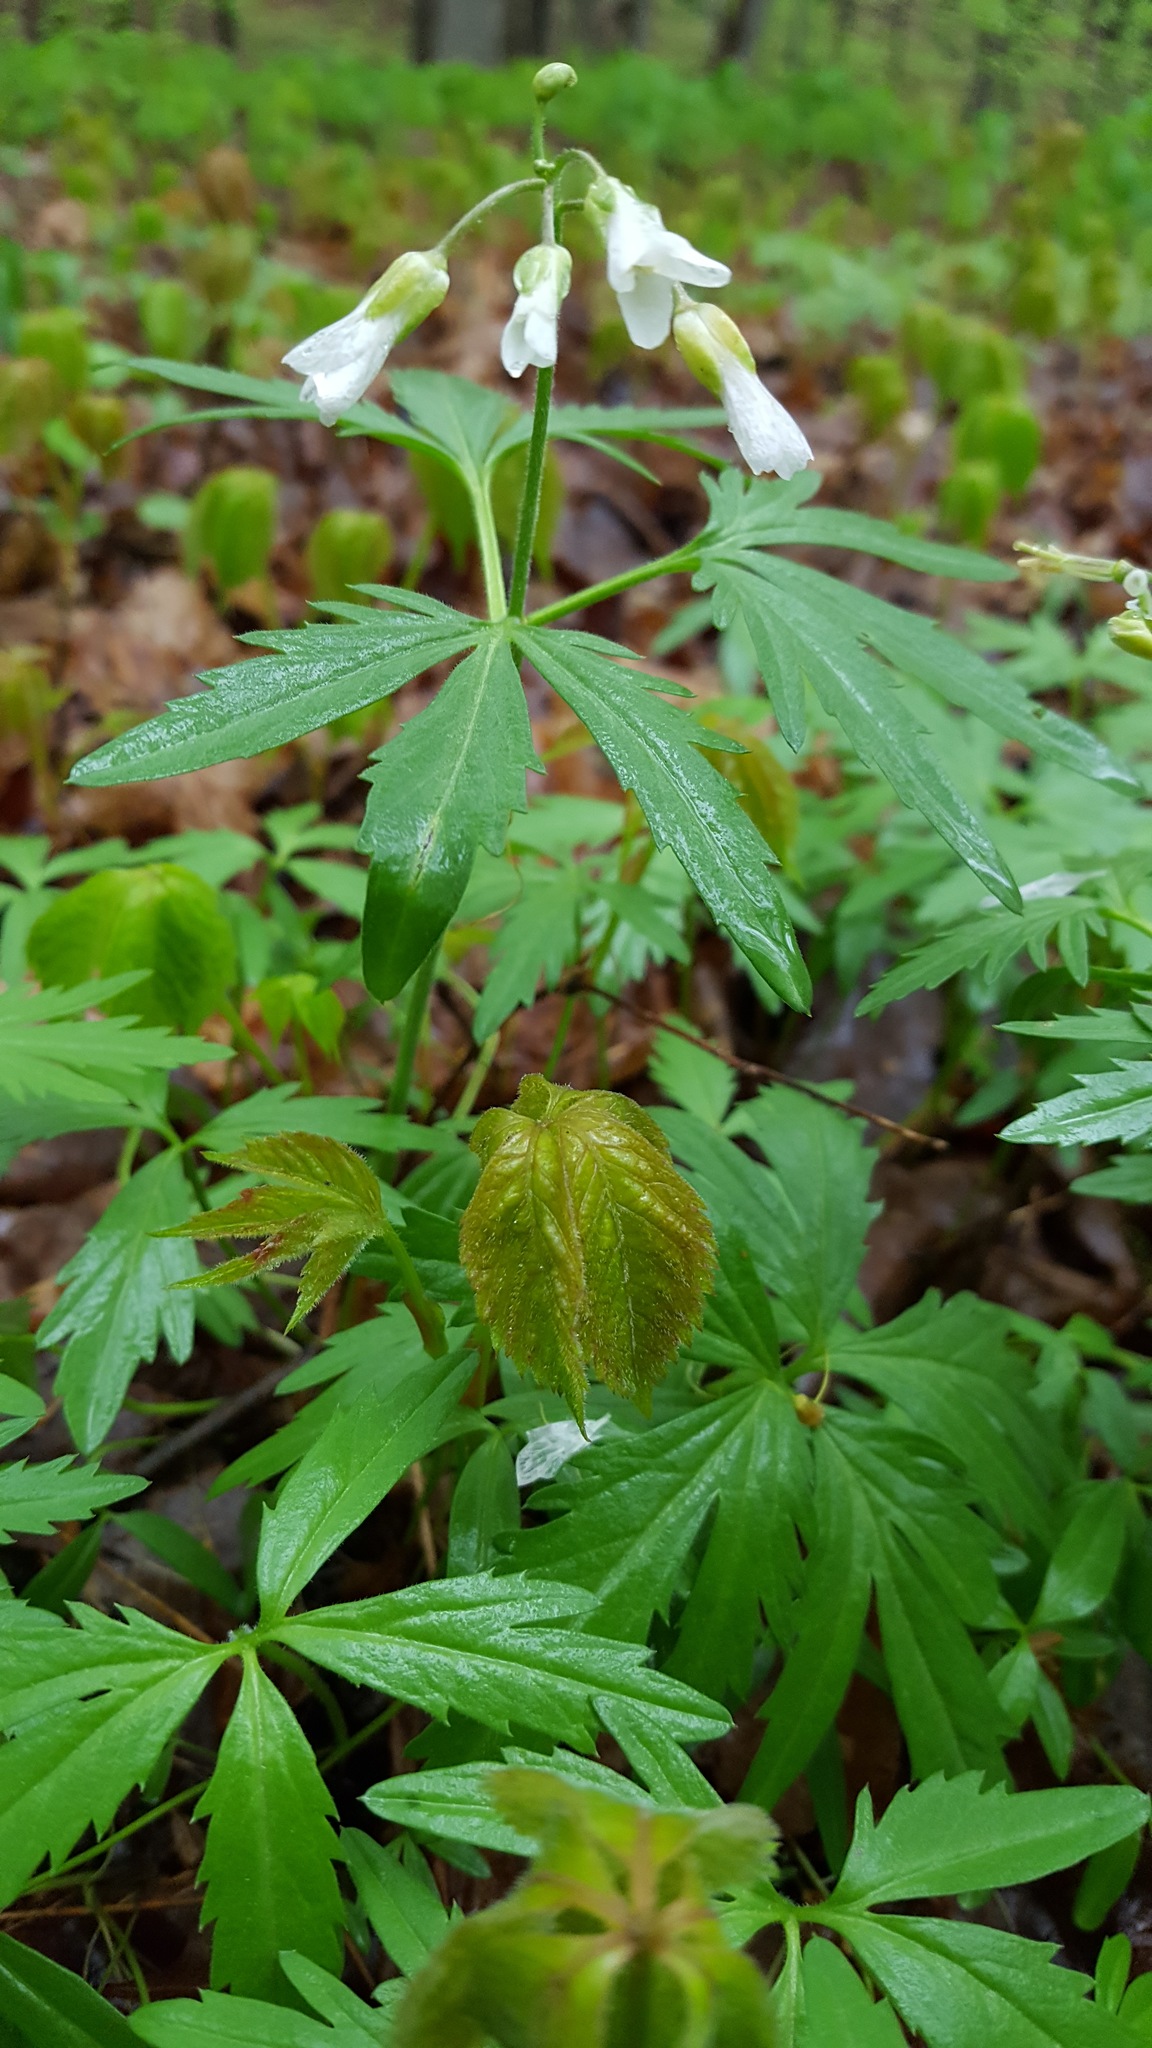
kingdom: Plantae
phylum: Tracheophyta
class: Magnoliopsida
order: Brassicales
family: Brassicaceae
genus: Cardamine
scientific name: Cardamine concatenata
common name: Cut-leaf toothcup
